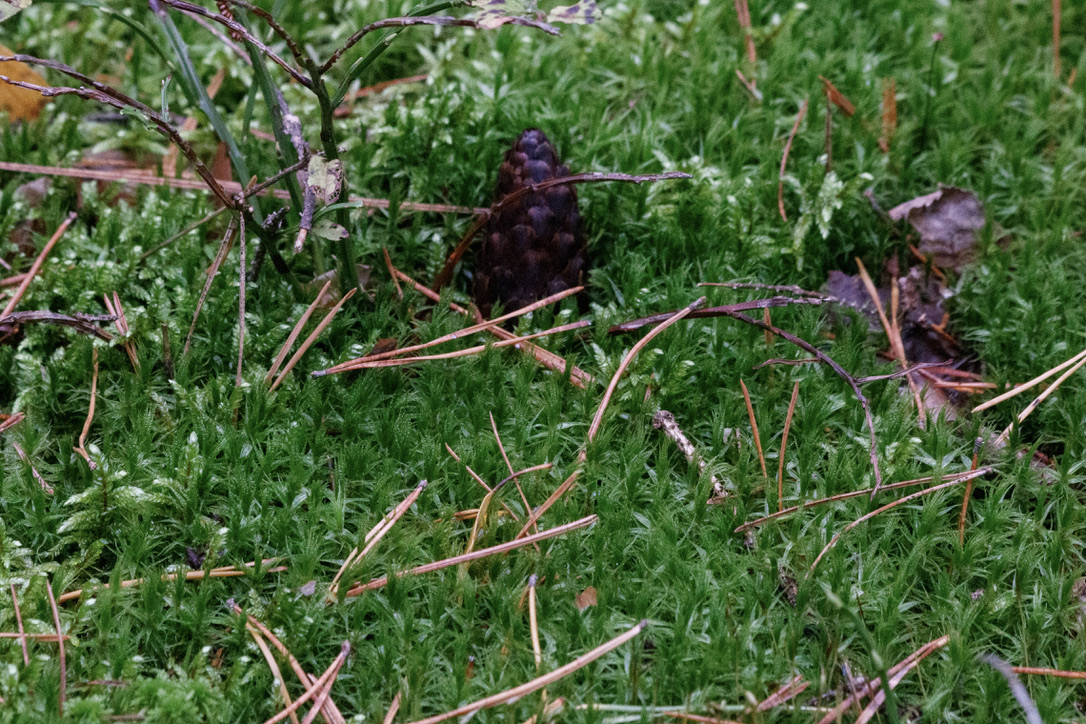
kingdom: Plantae
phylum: Bryophyta
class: Bryopsida
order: Dicranales
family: Dicranaceae
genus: Dicranum
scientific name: Dicranum polysetum
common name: Rugose fork-moss
